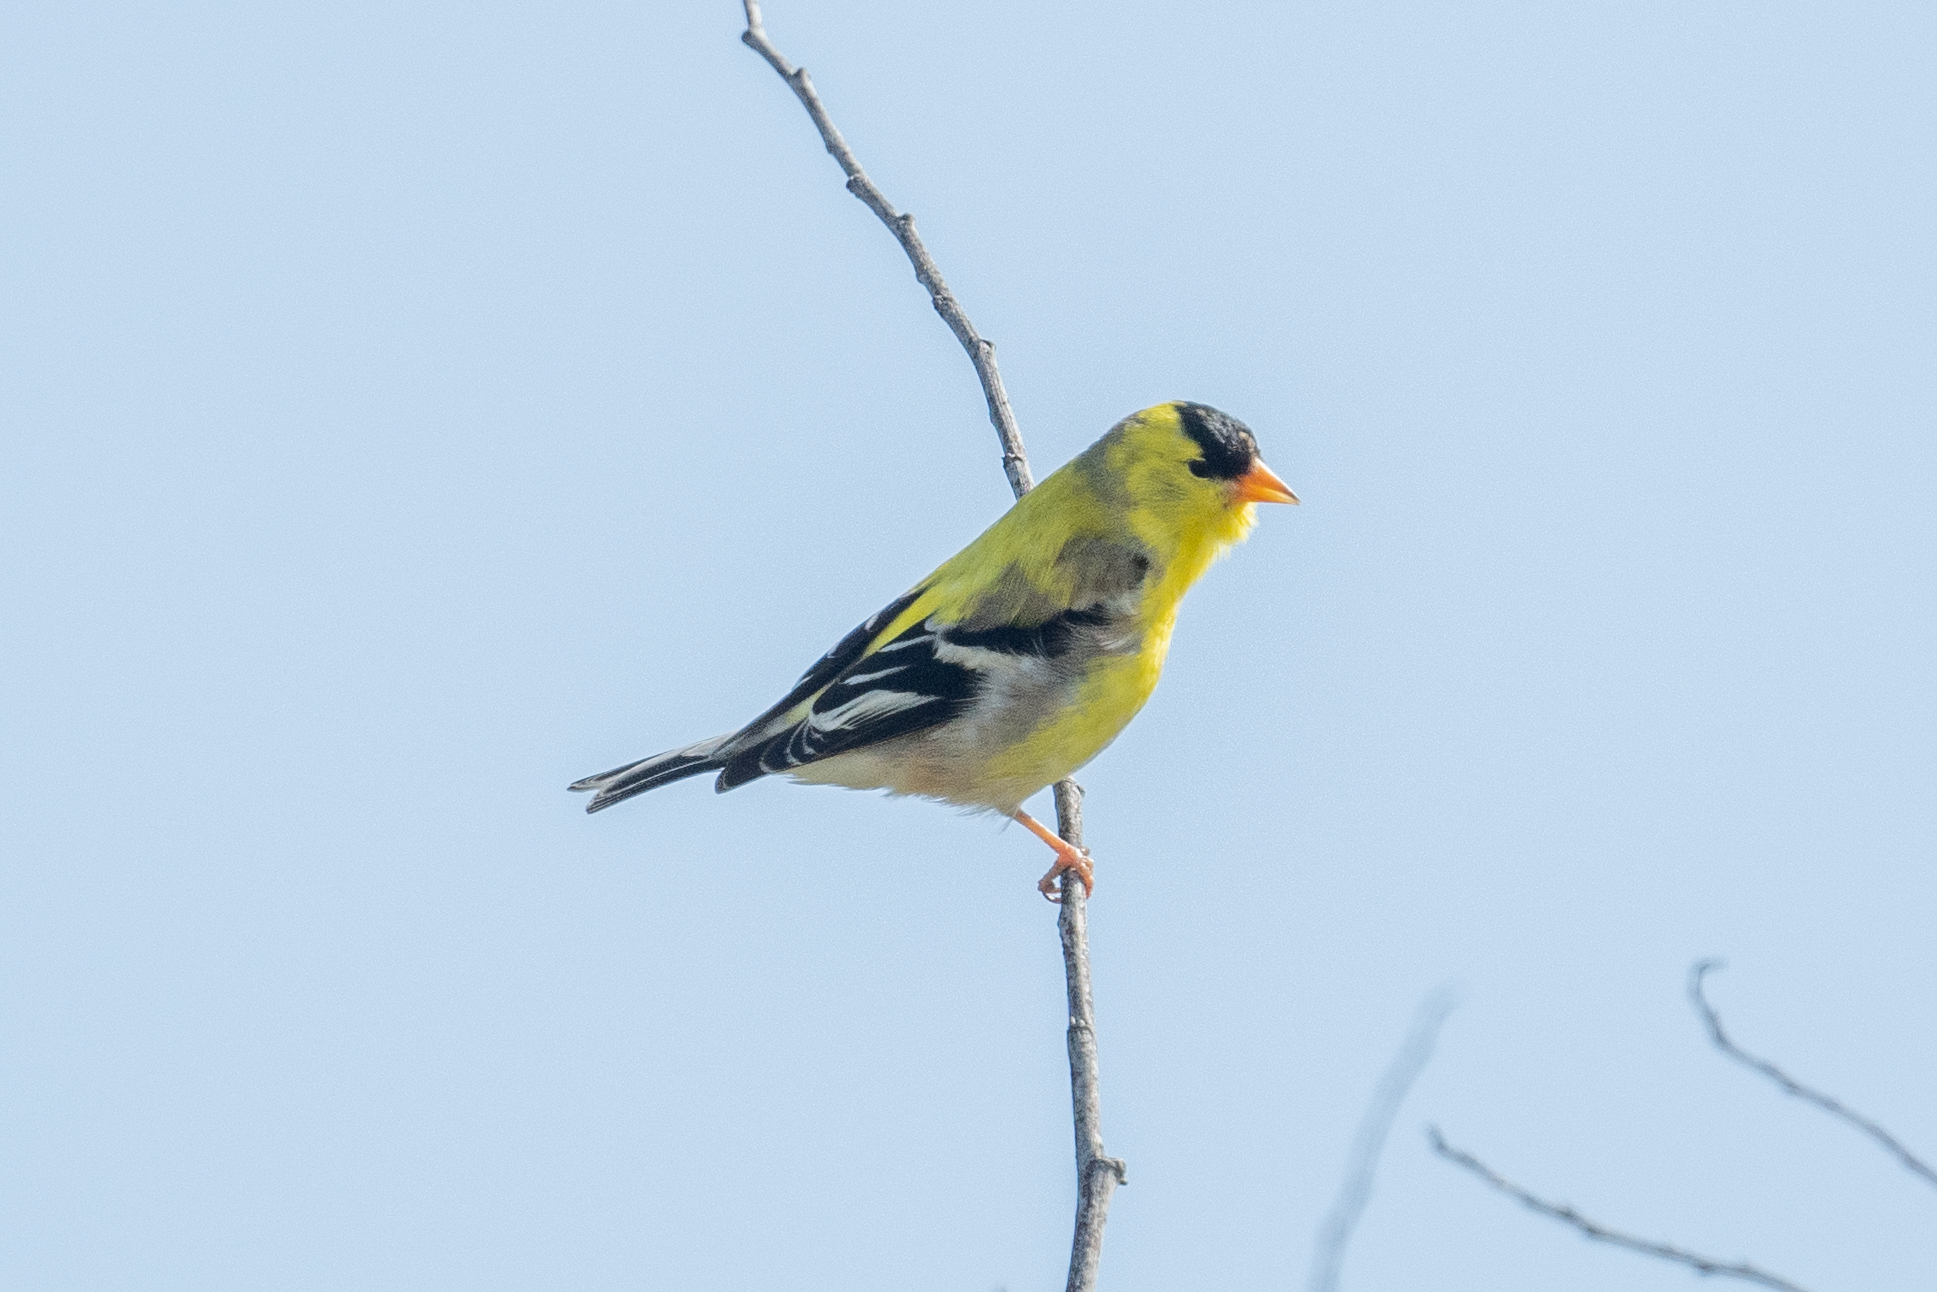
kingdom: Animalia
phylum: Chordata
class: Aves
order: Passeriformes
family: Fringillidae
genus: Spinus
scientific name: Spinus tristis
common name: American goldfinch
